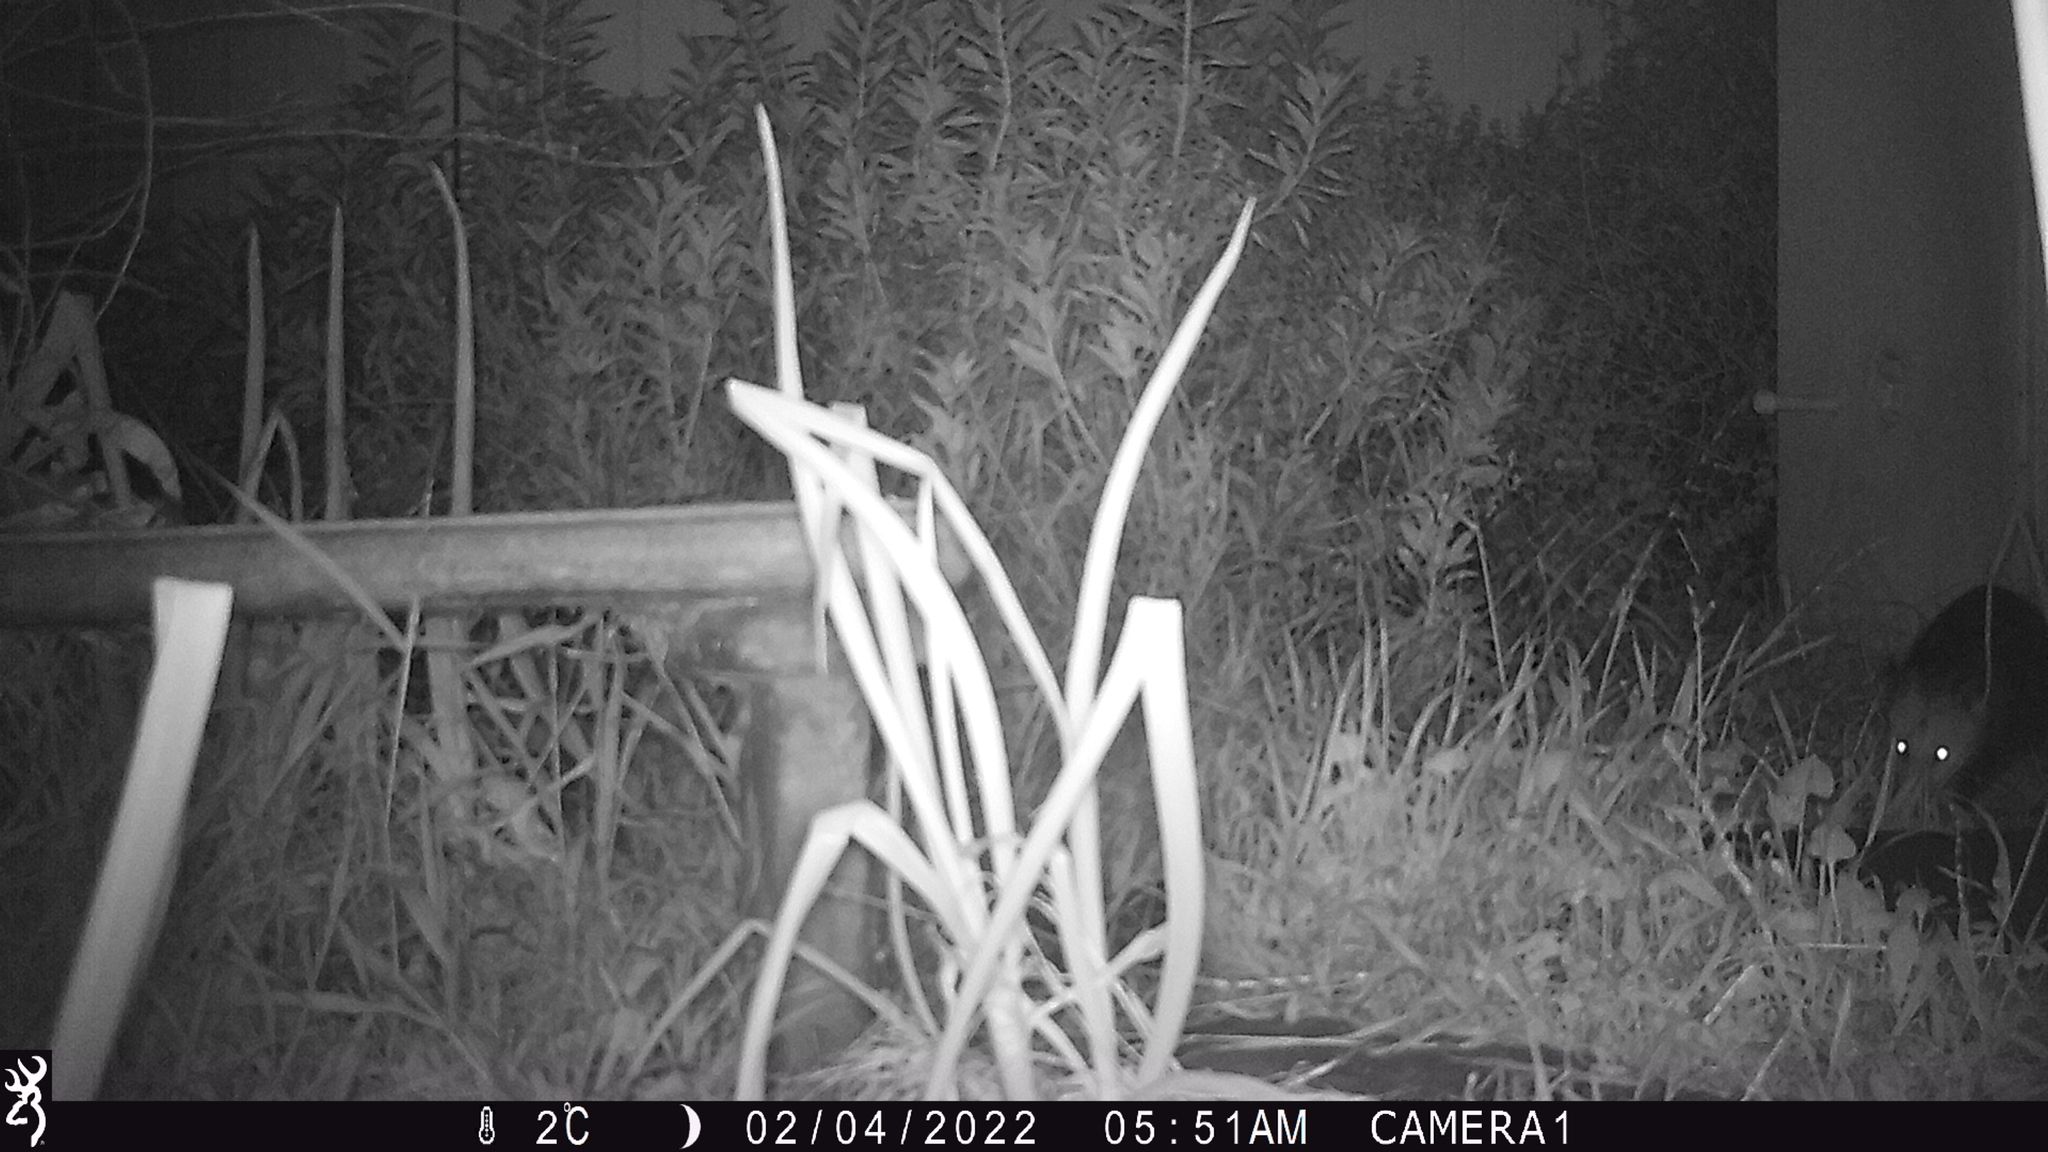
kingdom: Animalia
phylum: Chordata
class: Mammalia
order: Didelphimorphia
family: Didelphidae
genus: Didelphis
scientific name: Didelphis virginiana
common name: Virginia opossum
